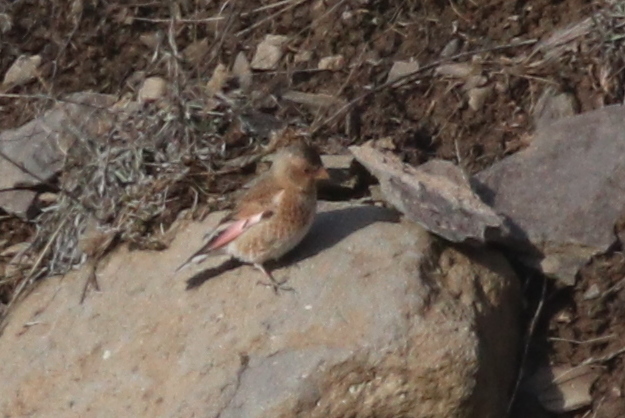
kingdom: Animalia
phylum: Chordata
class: Aves
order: Passeriformes
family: Fringillidae
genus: Rhodopechys
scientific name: Rhodopechys sanguineus
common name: Crimson-winged finch
